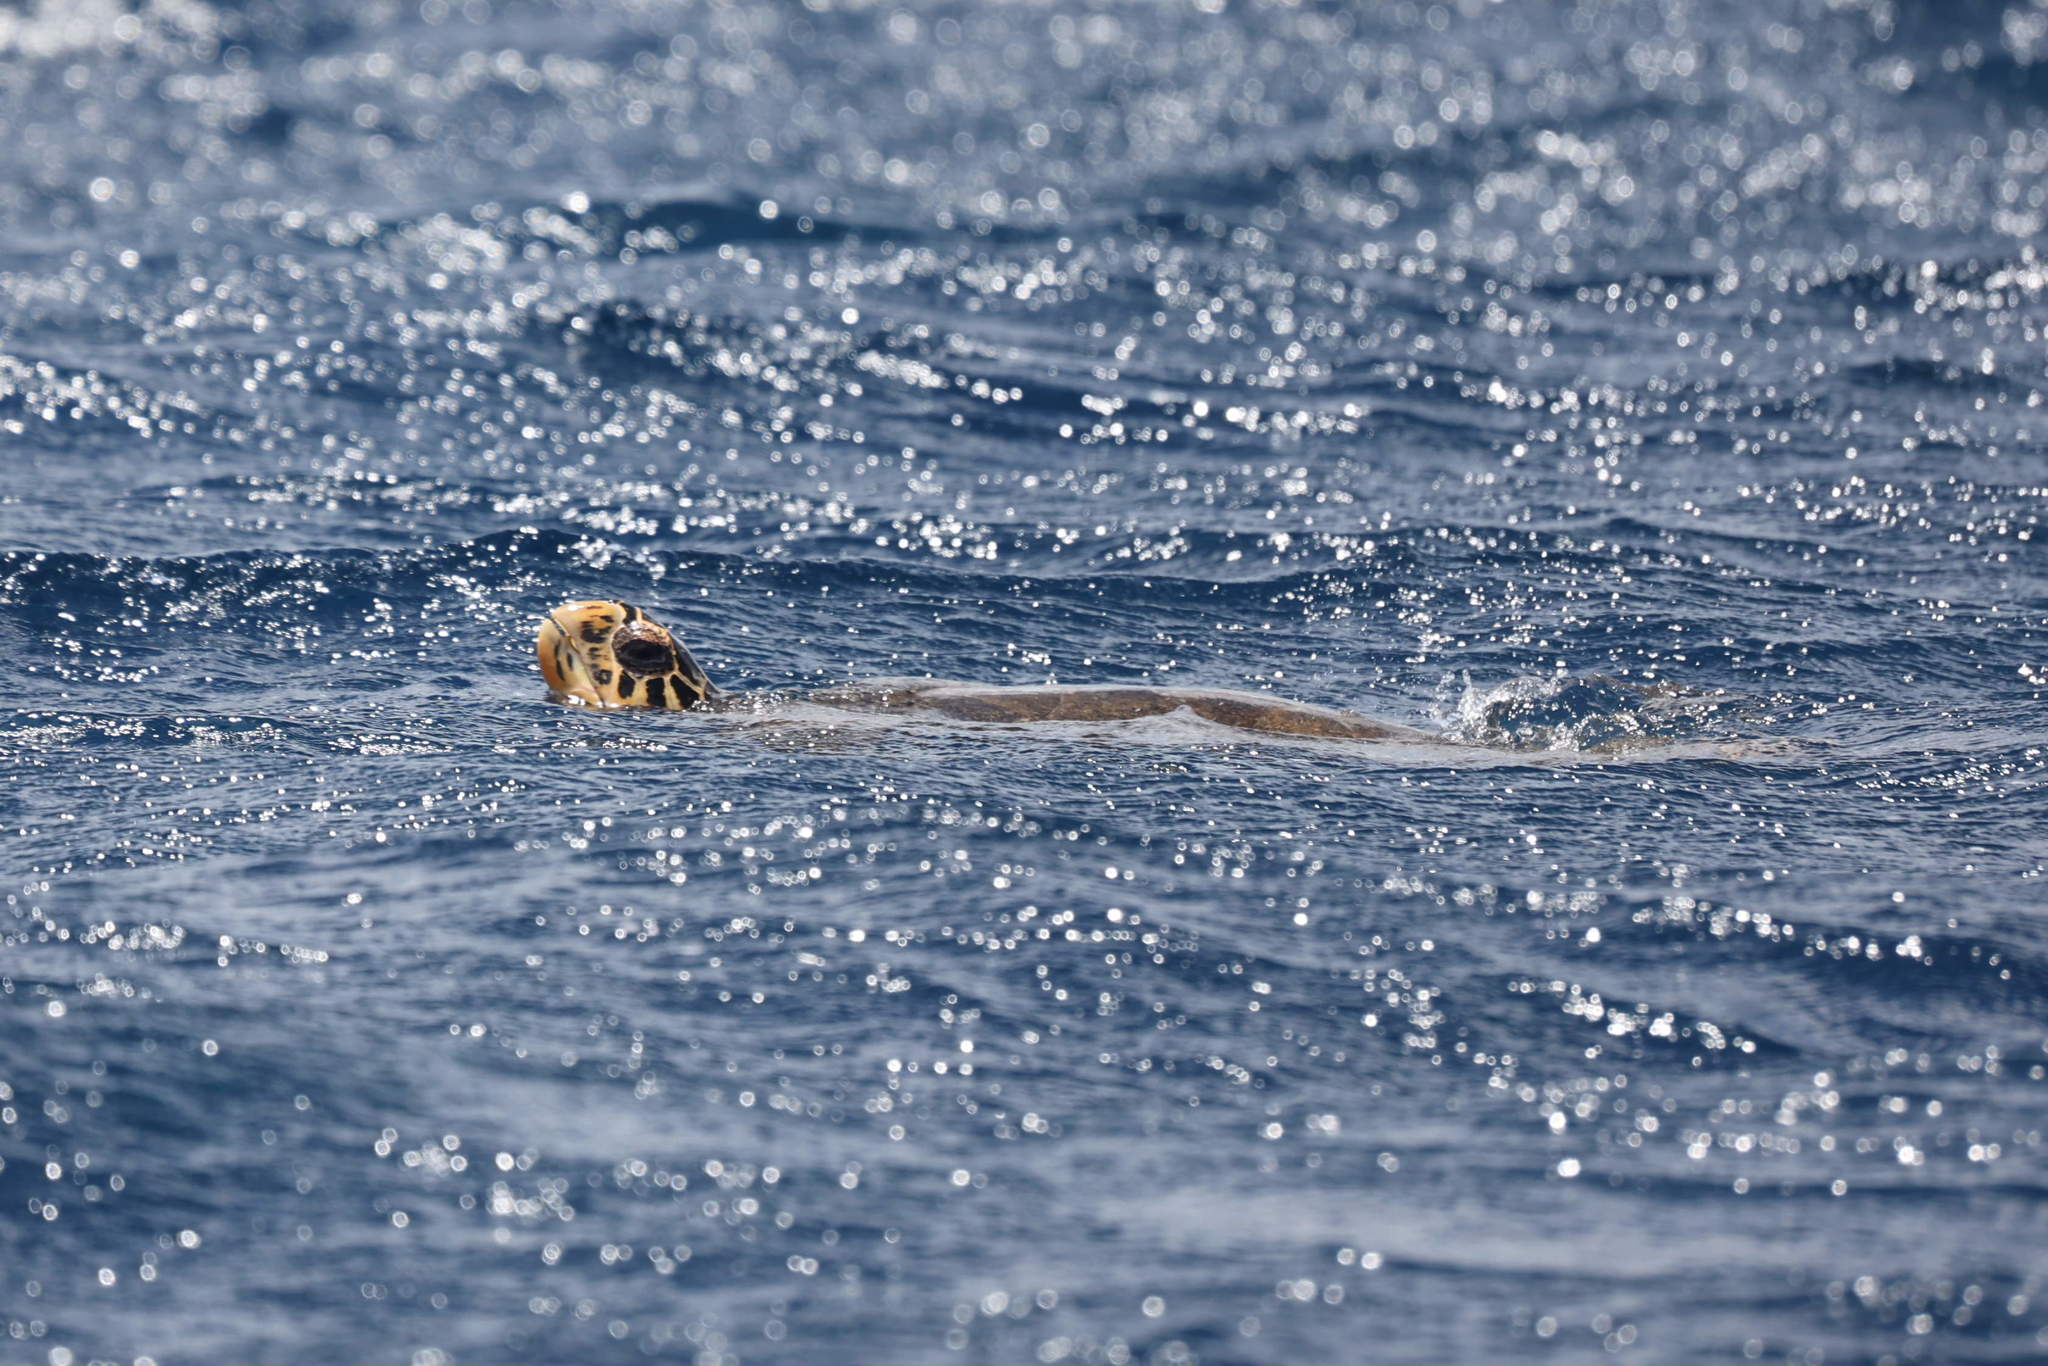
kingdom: Animalia
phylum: Chordata
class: Testudines
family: Cheloniidae
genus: Eretmochelys
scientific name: Eretmochelys imbricata
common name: Hawksbill turtle
